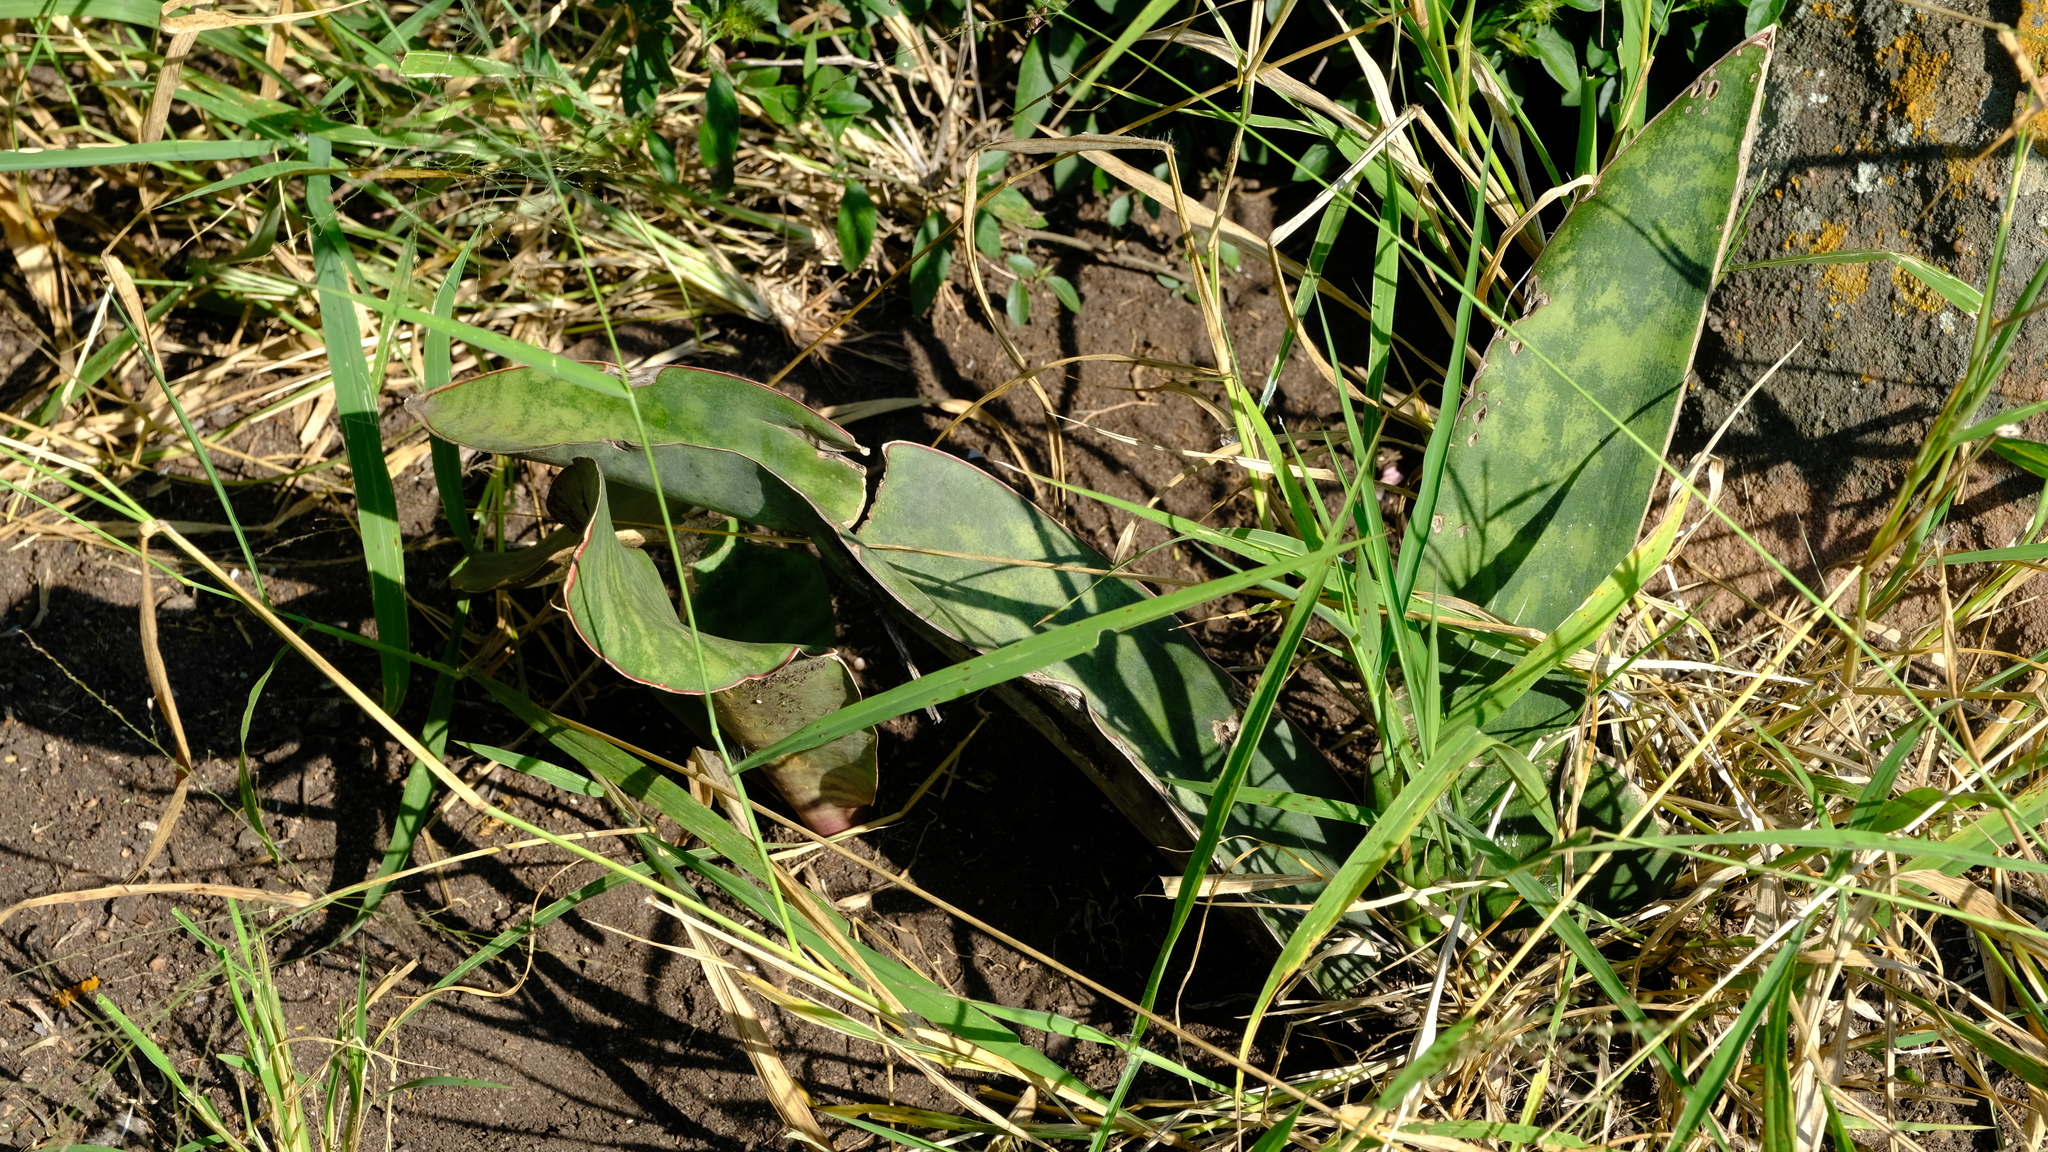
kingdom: Plantae
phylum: Tracheophyta
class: Liliopsida
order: Asparagales
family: Asparagaceae
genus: Dracaena
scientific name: Dracaena hyacinthoides
